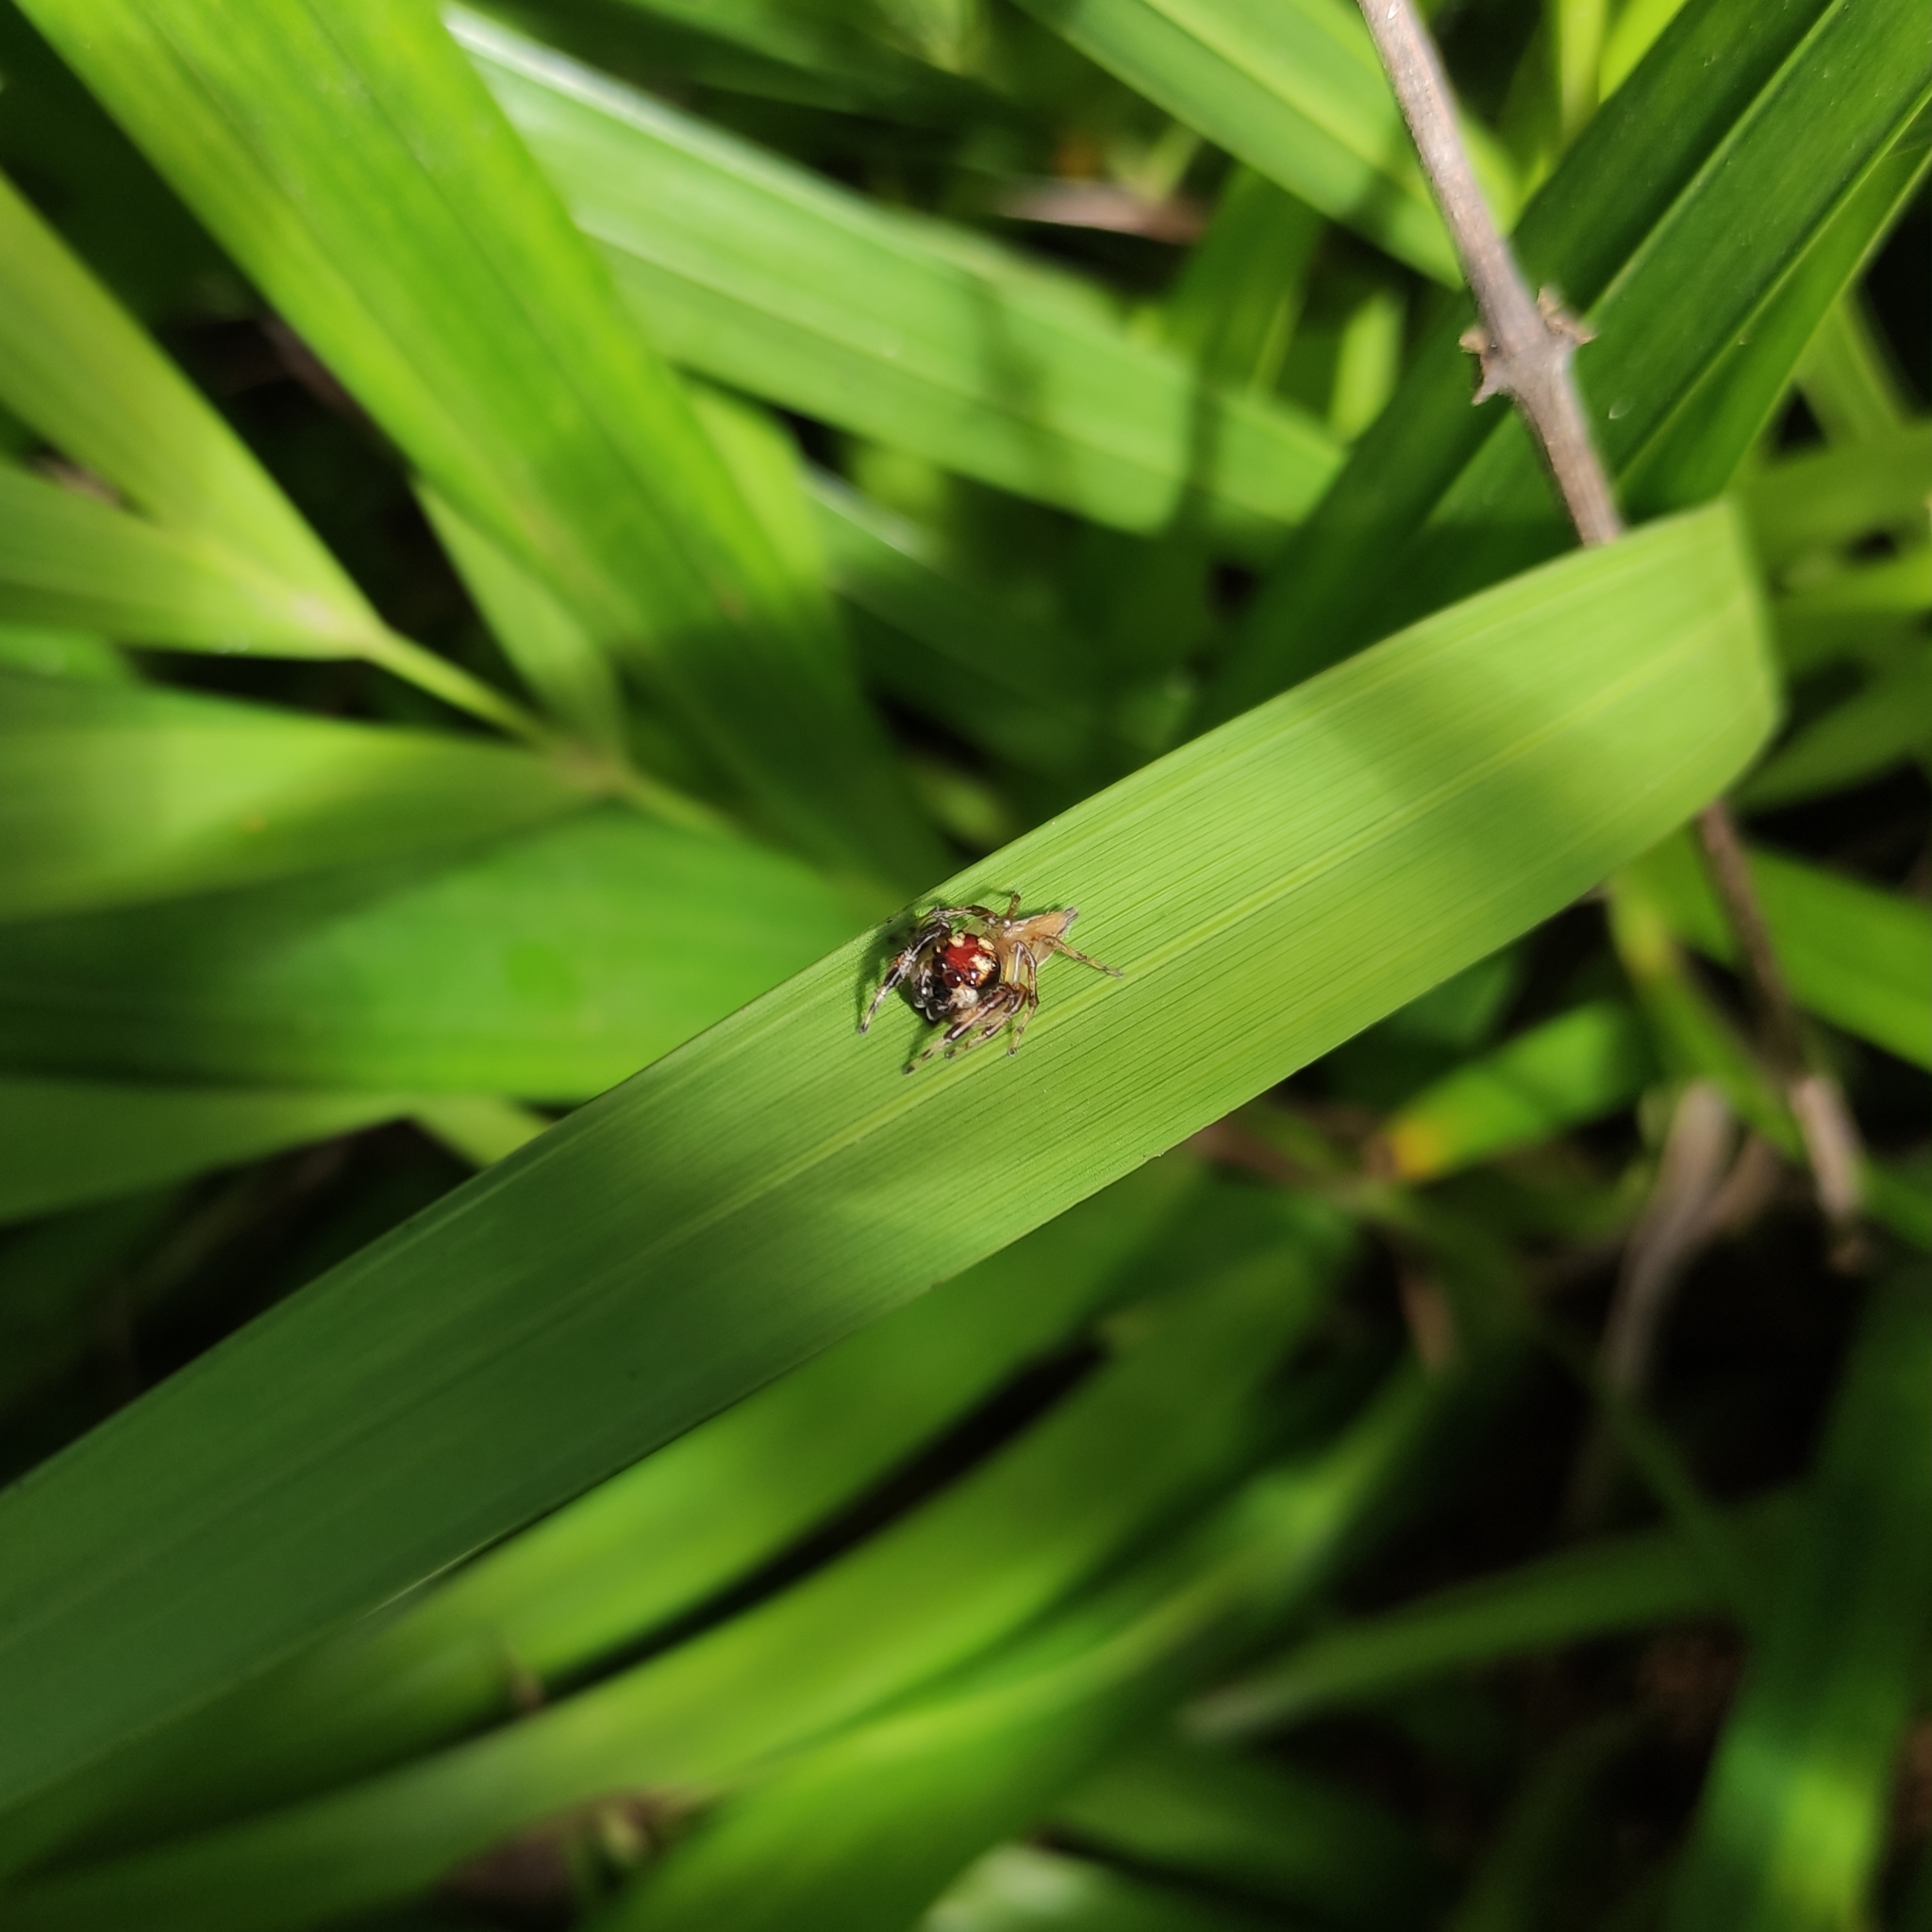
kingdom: Animalia
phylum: Arthropoda
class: Arachnida
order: Araneae
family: Salticidae
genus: Vinnius
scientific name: Vinnius uncatus
